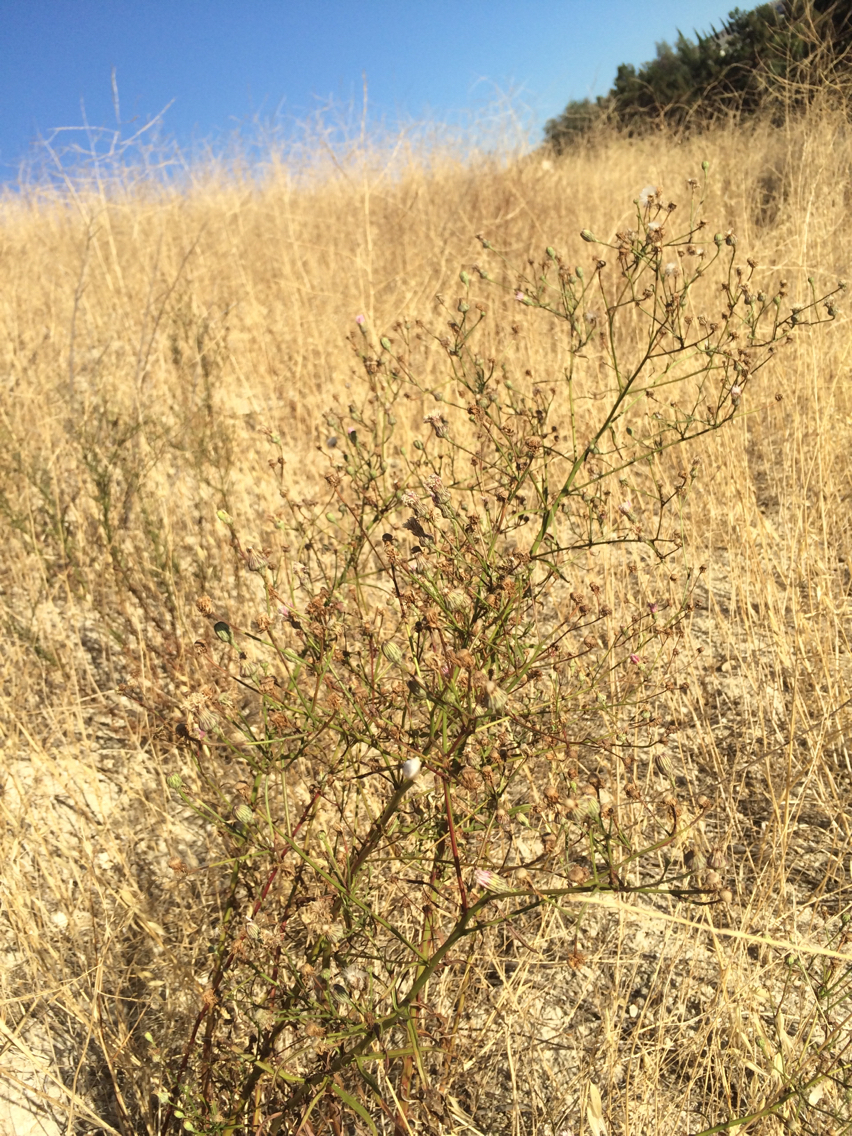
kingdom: Plantae
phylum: Tracheophyta
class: Magnoliopsida
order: Asterales
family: Asteraceae
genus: Malacothrix
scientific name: Malacothrix saxatilis
